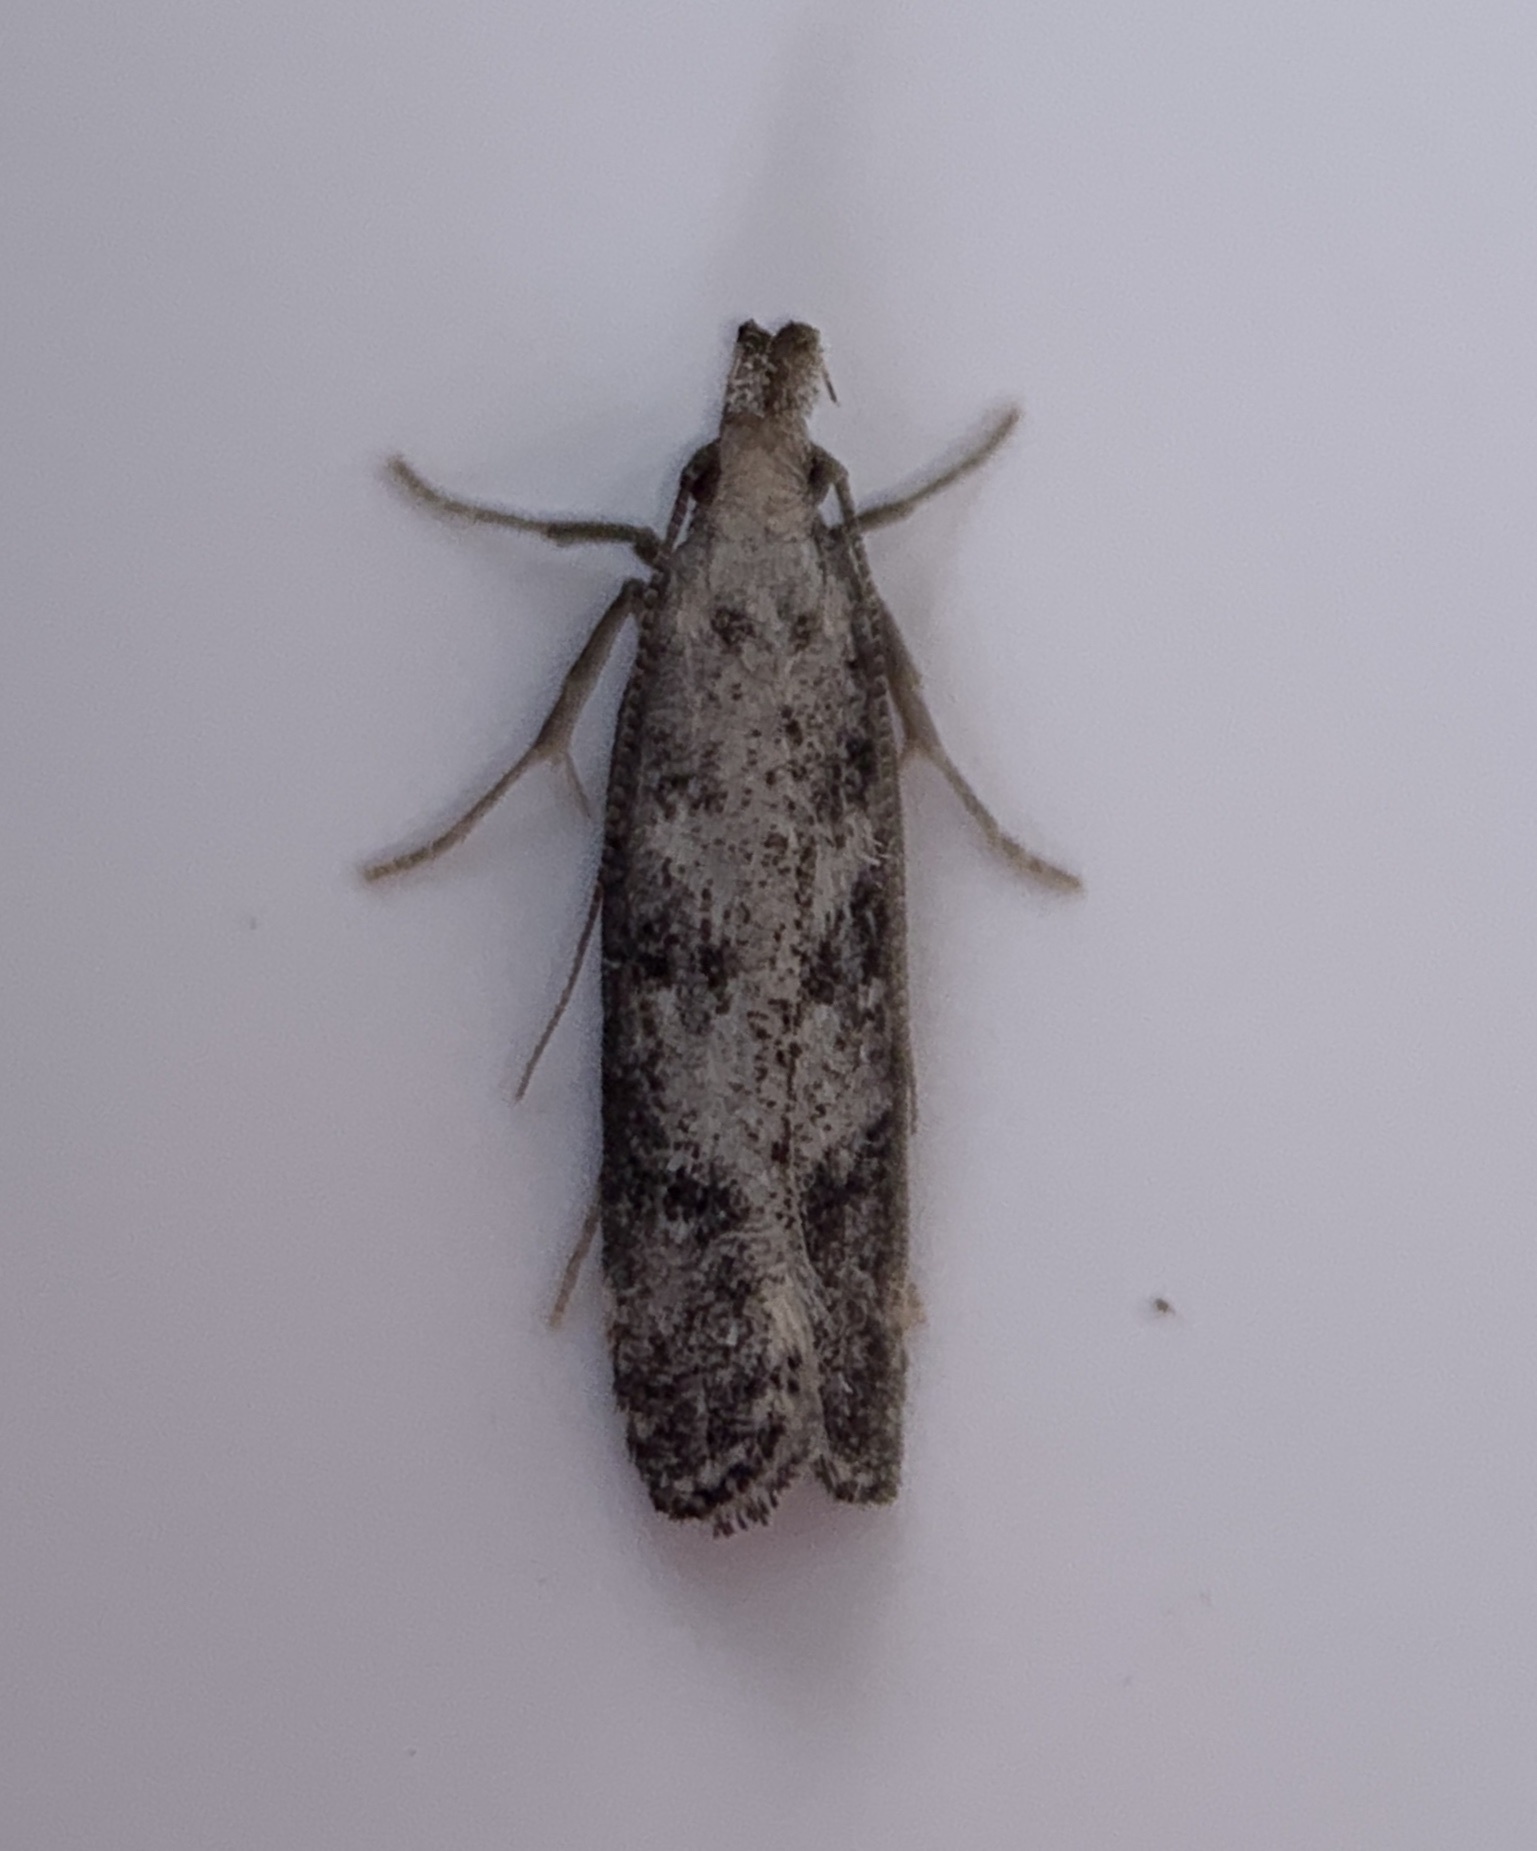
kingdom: Animalia
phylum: Arthropoda
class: Insecta
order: Lepidoptera
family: Gelechiidae
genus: Dichomeris
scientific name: Dichomeris inversella
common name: Inverse dichomeris moth
